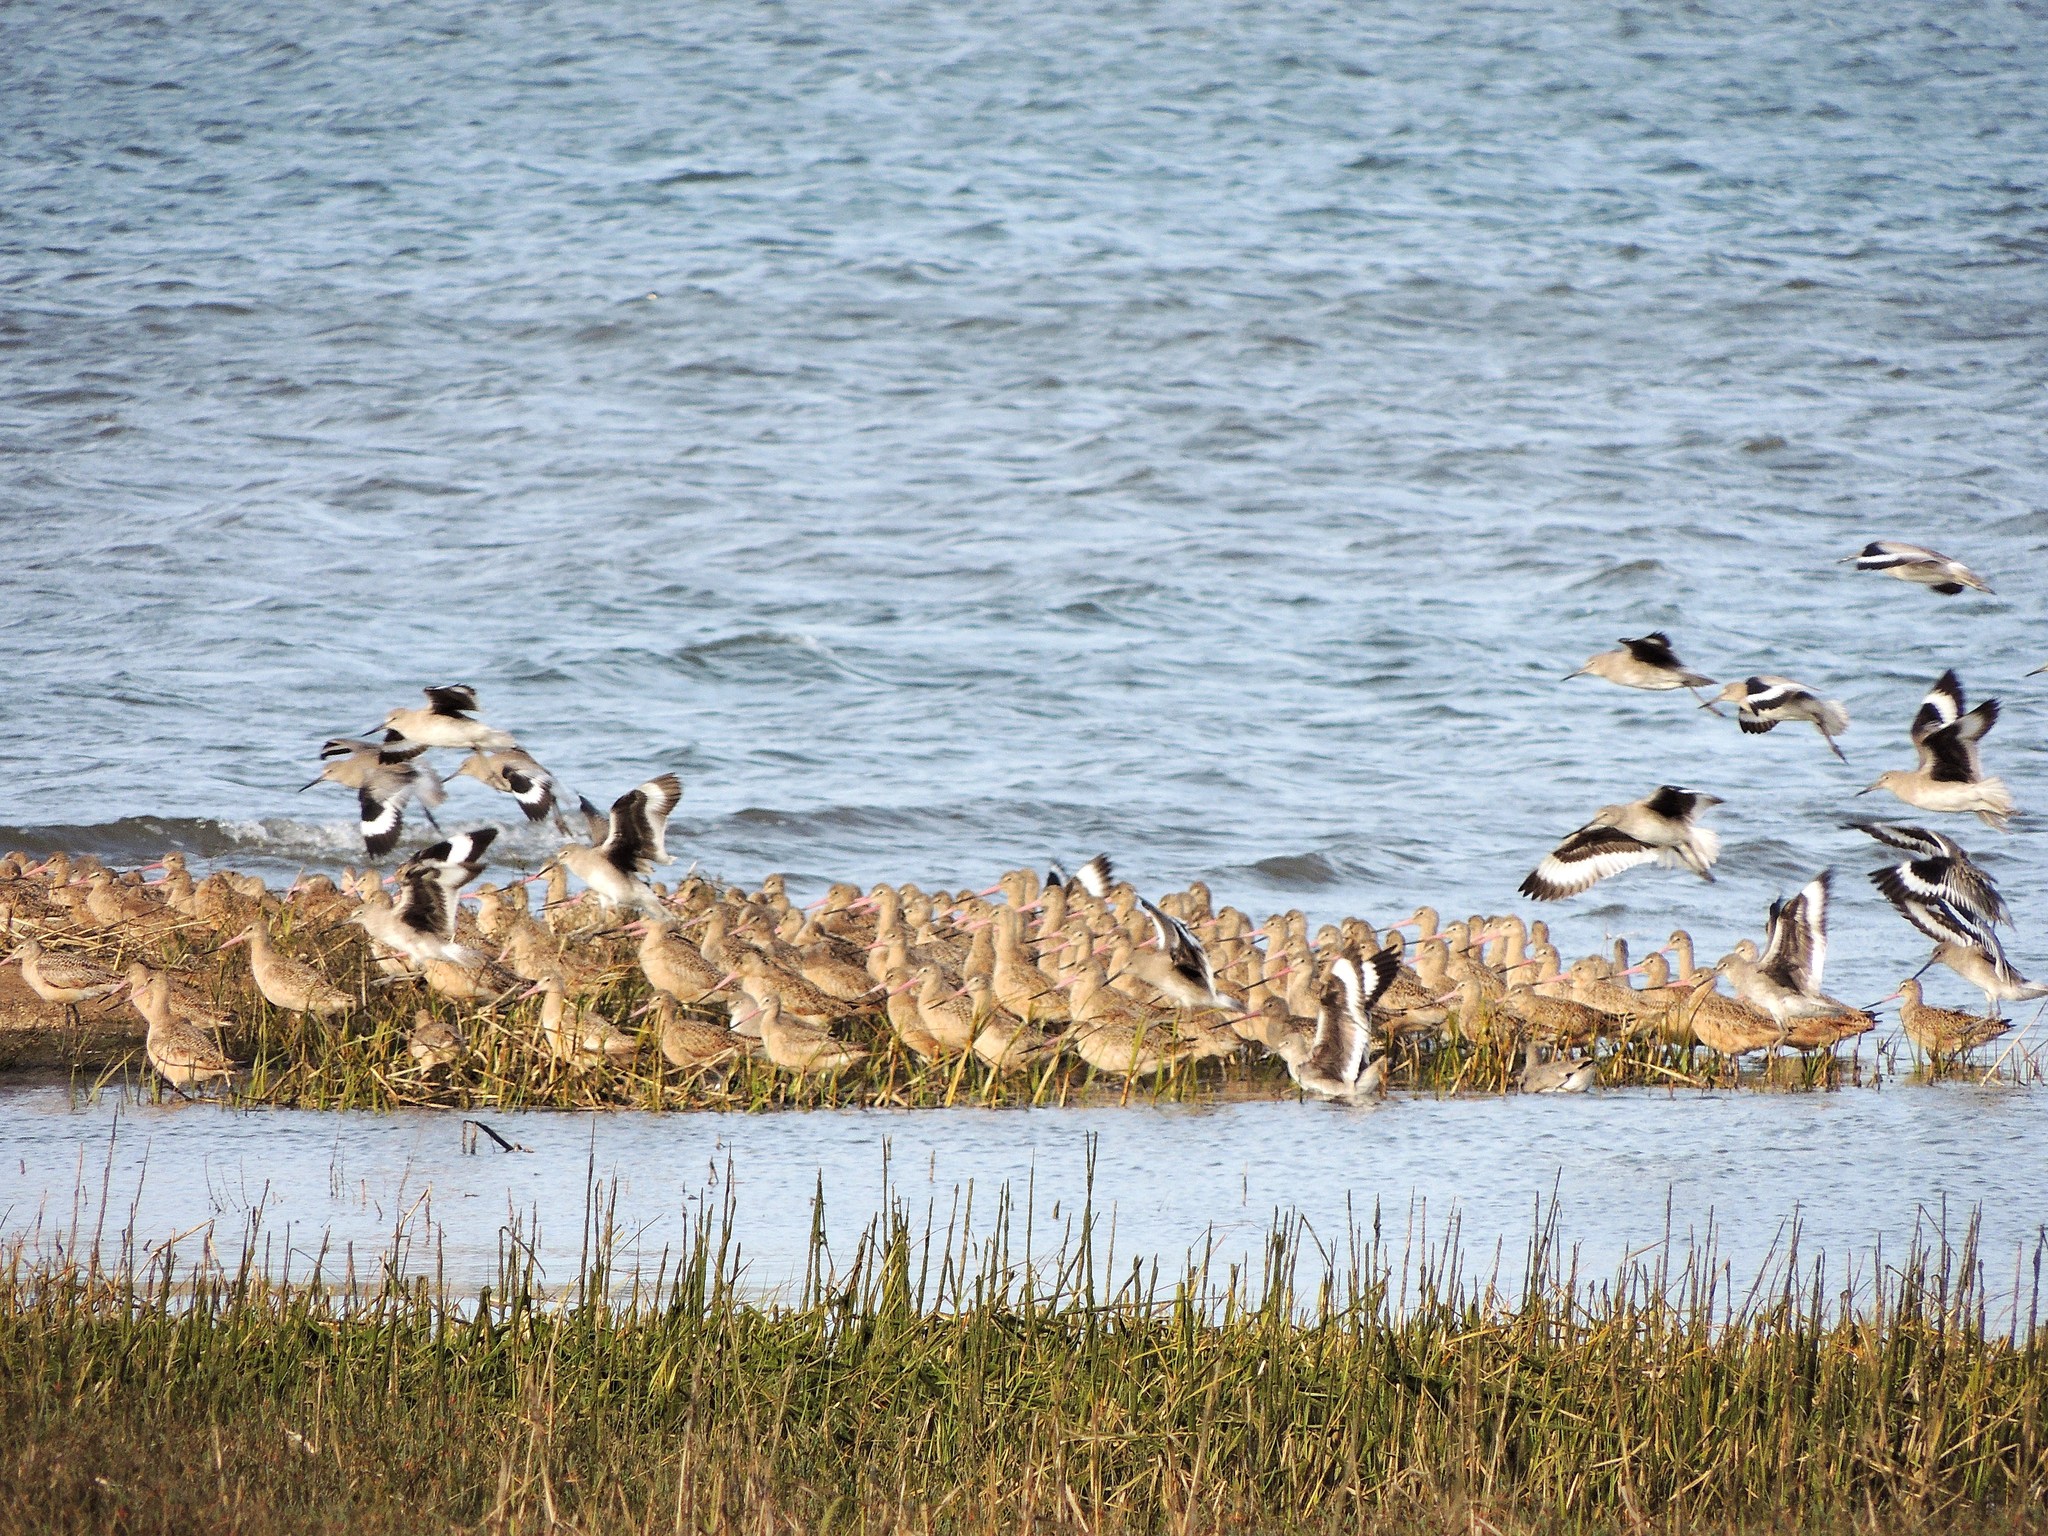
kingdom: Animalia
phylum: Chordata
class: Aves
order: Charadriiformes
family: Scolopacidae
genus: Limosa
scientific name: Limosa fedoa
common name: Marbled godwit
